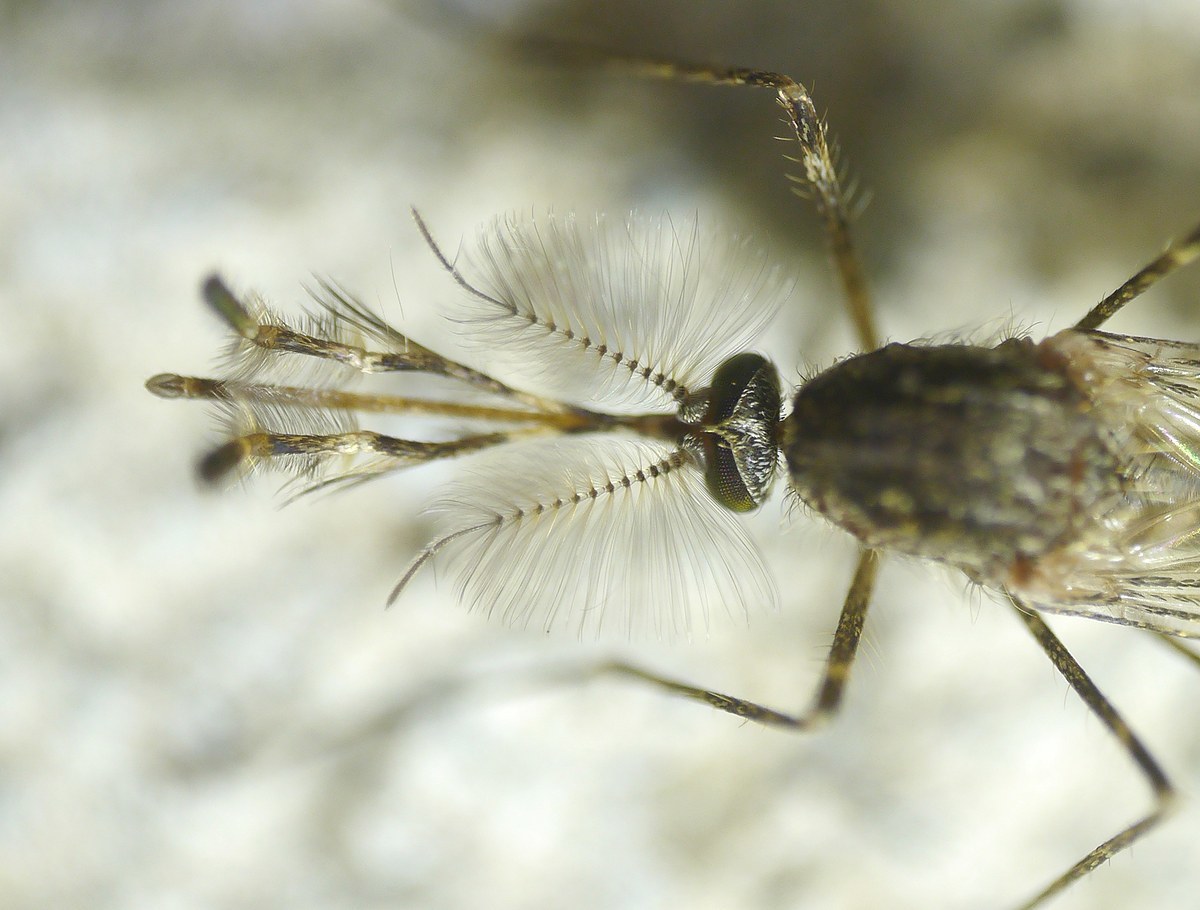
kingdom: Animalia
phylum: Arthropoda
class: Insecta
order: Diptera
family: Culicidae
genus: Culiseta
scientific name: Culiseta annulata
